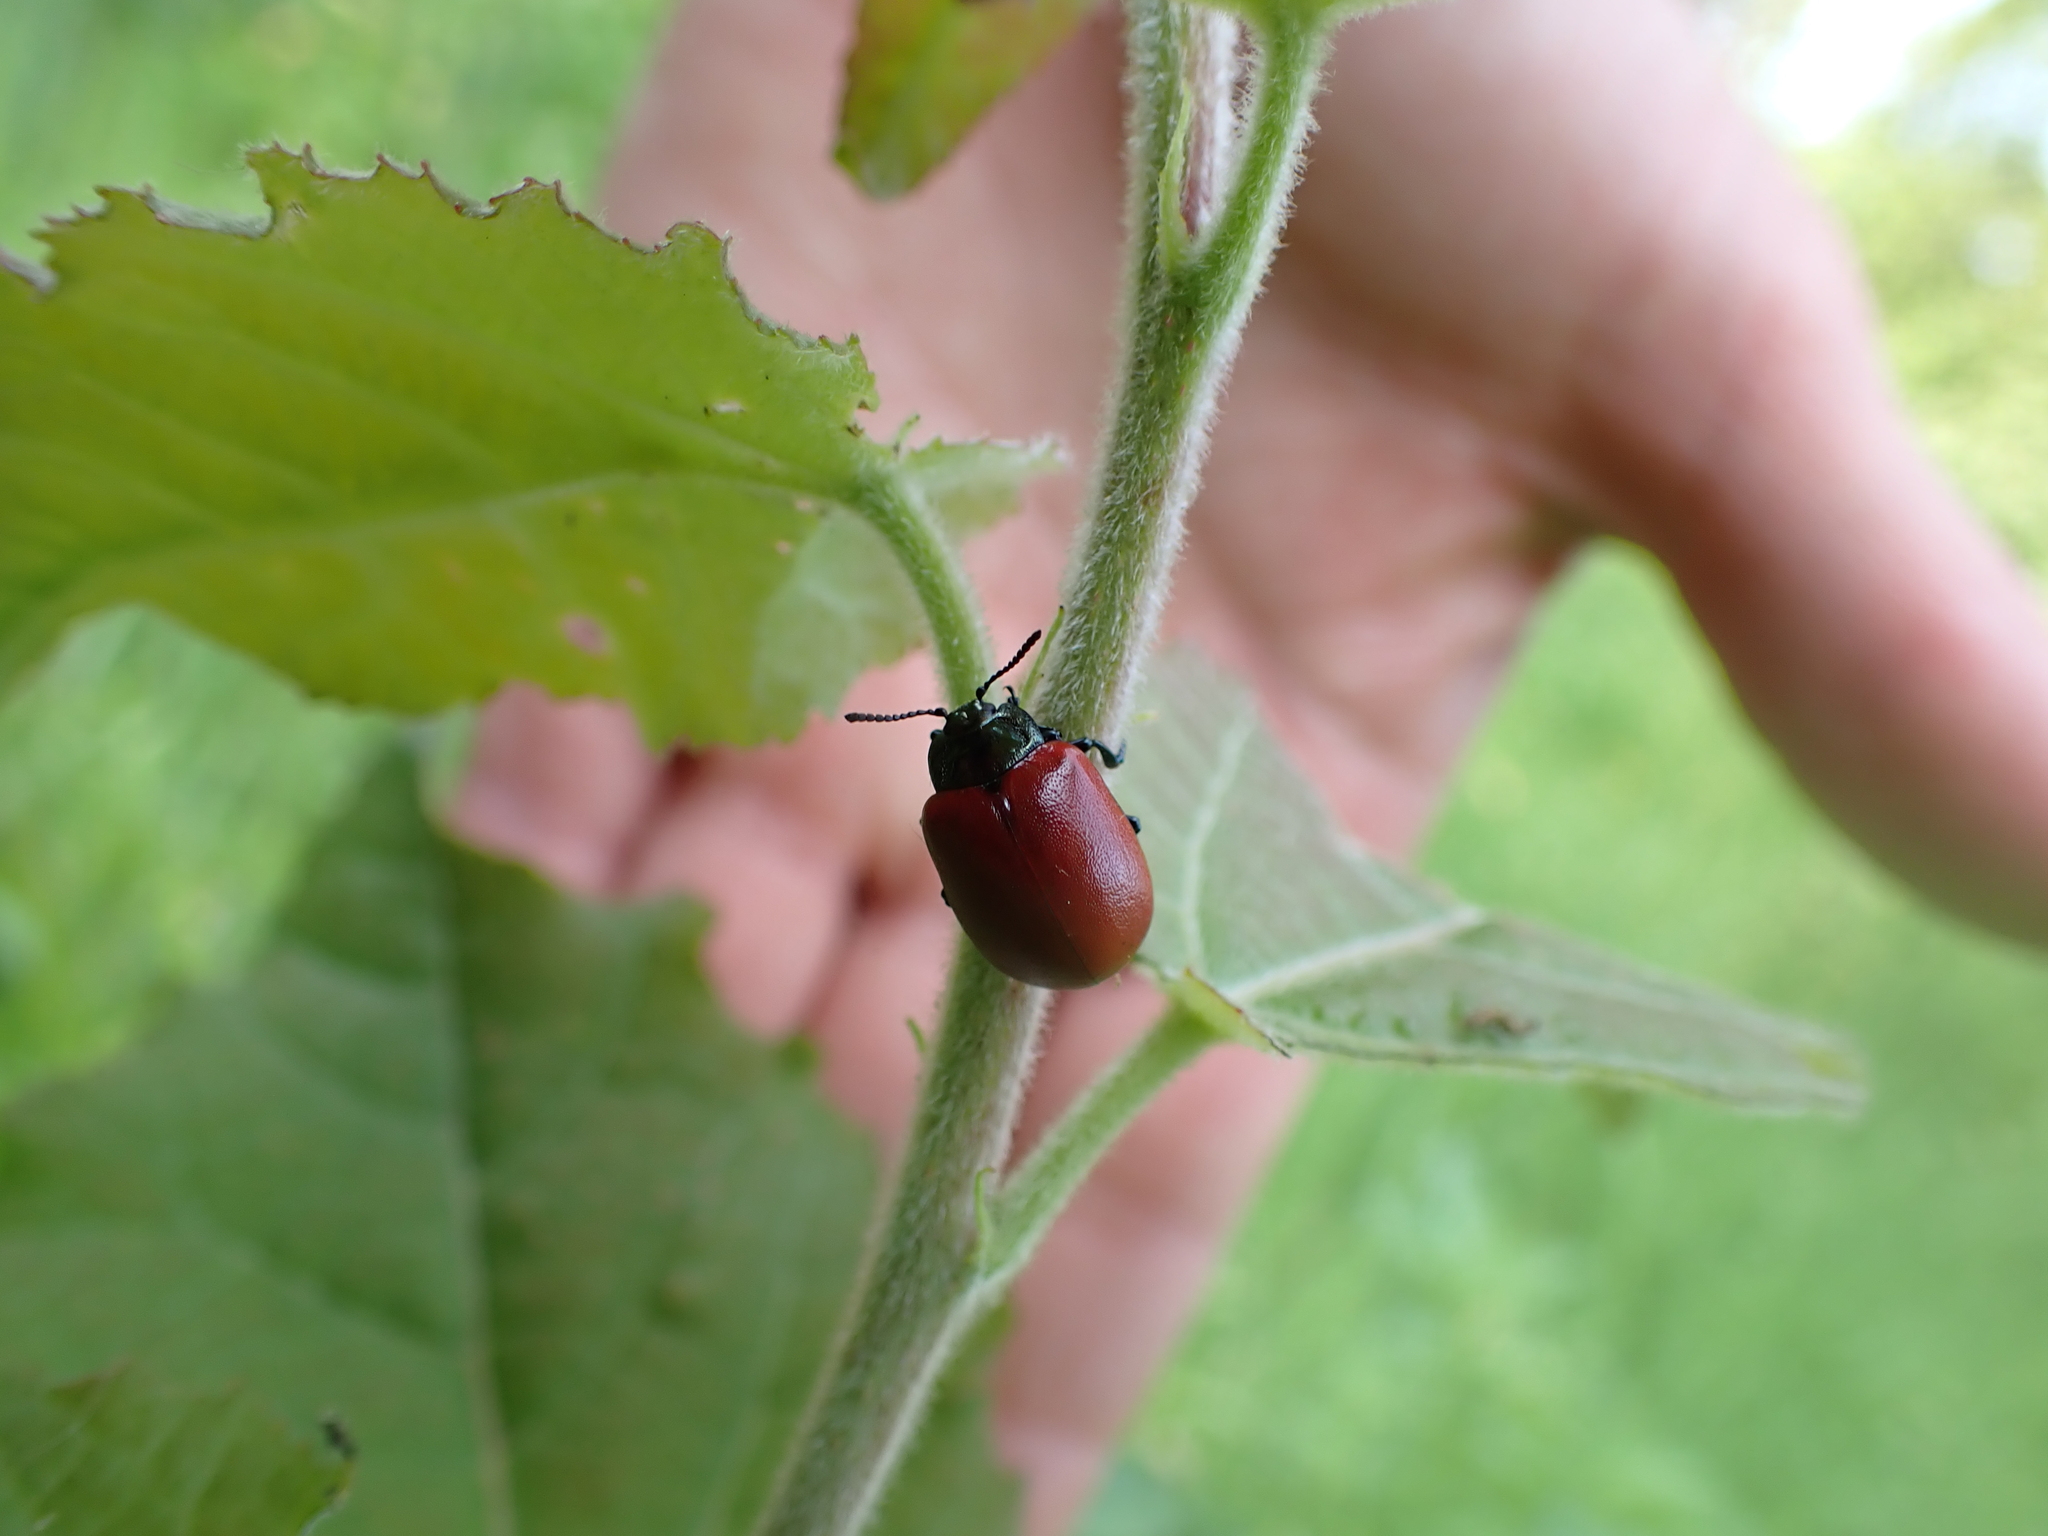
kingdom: Animalia
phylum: Arthropoda
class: Insecta
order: Coleoptera
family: Chrysomelidae
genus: Chrysomela
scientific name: Chrysomela populi
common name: Red poplar leaf beetle
